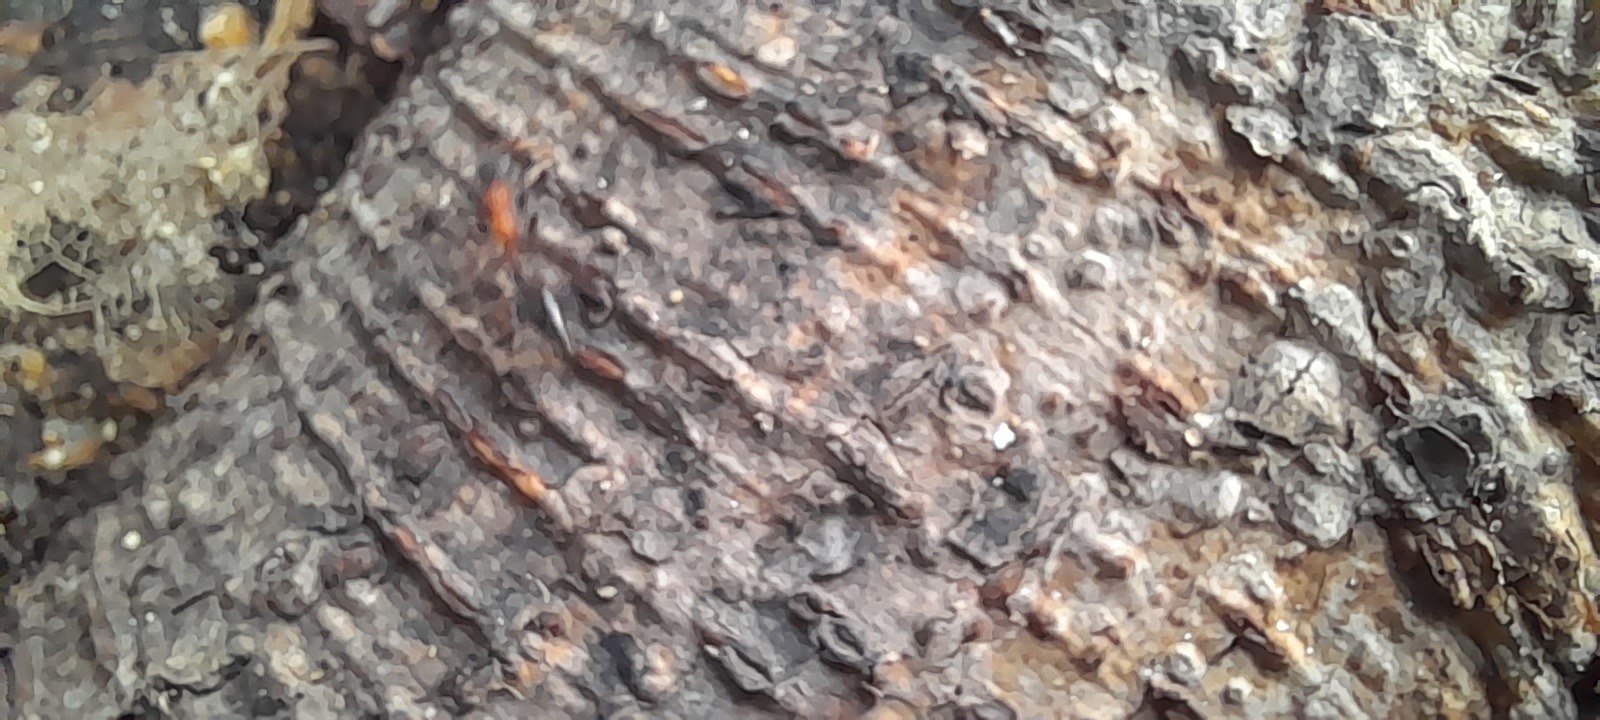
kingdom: Animalia
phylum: Arthropoda
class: Insecta
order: Hymenoptera
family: Formicidae
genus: Tetraponera
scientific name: Tetraponera rufonigra
